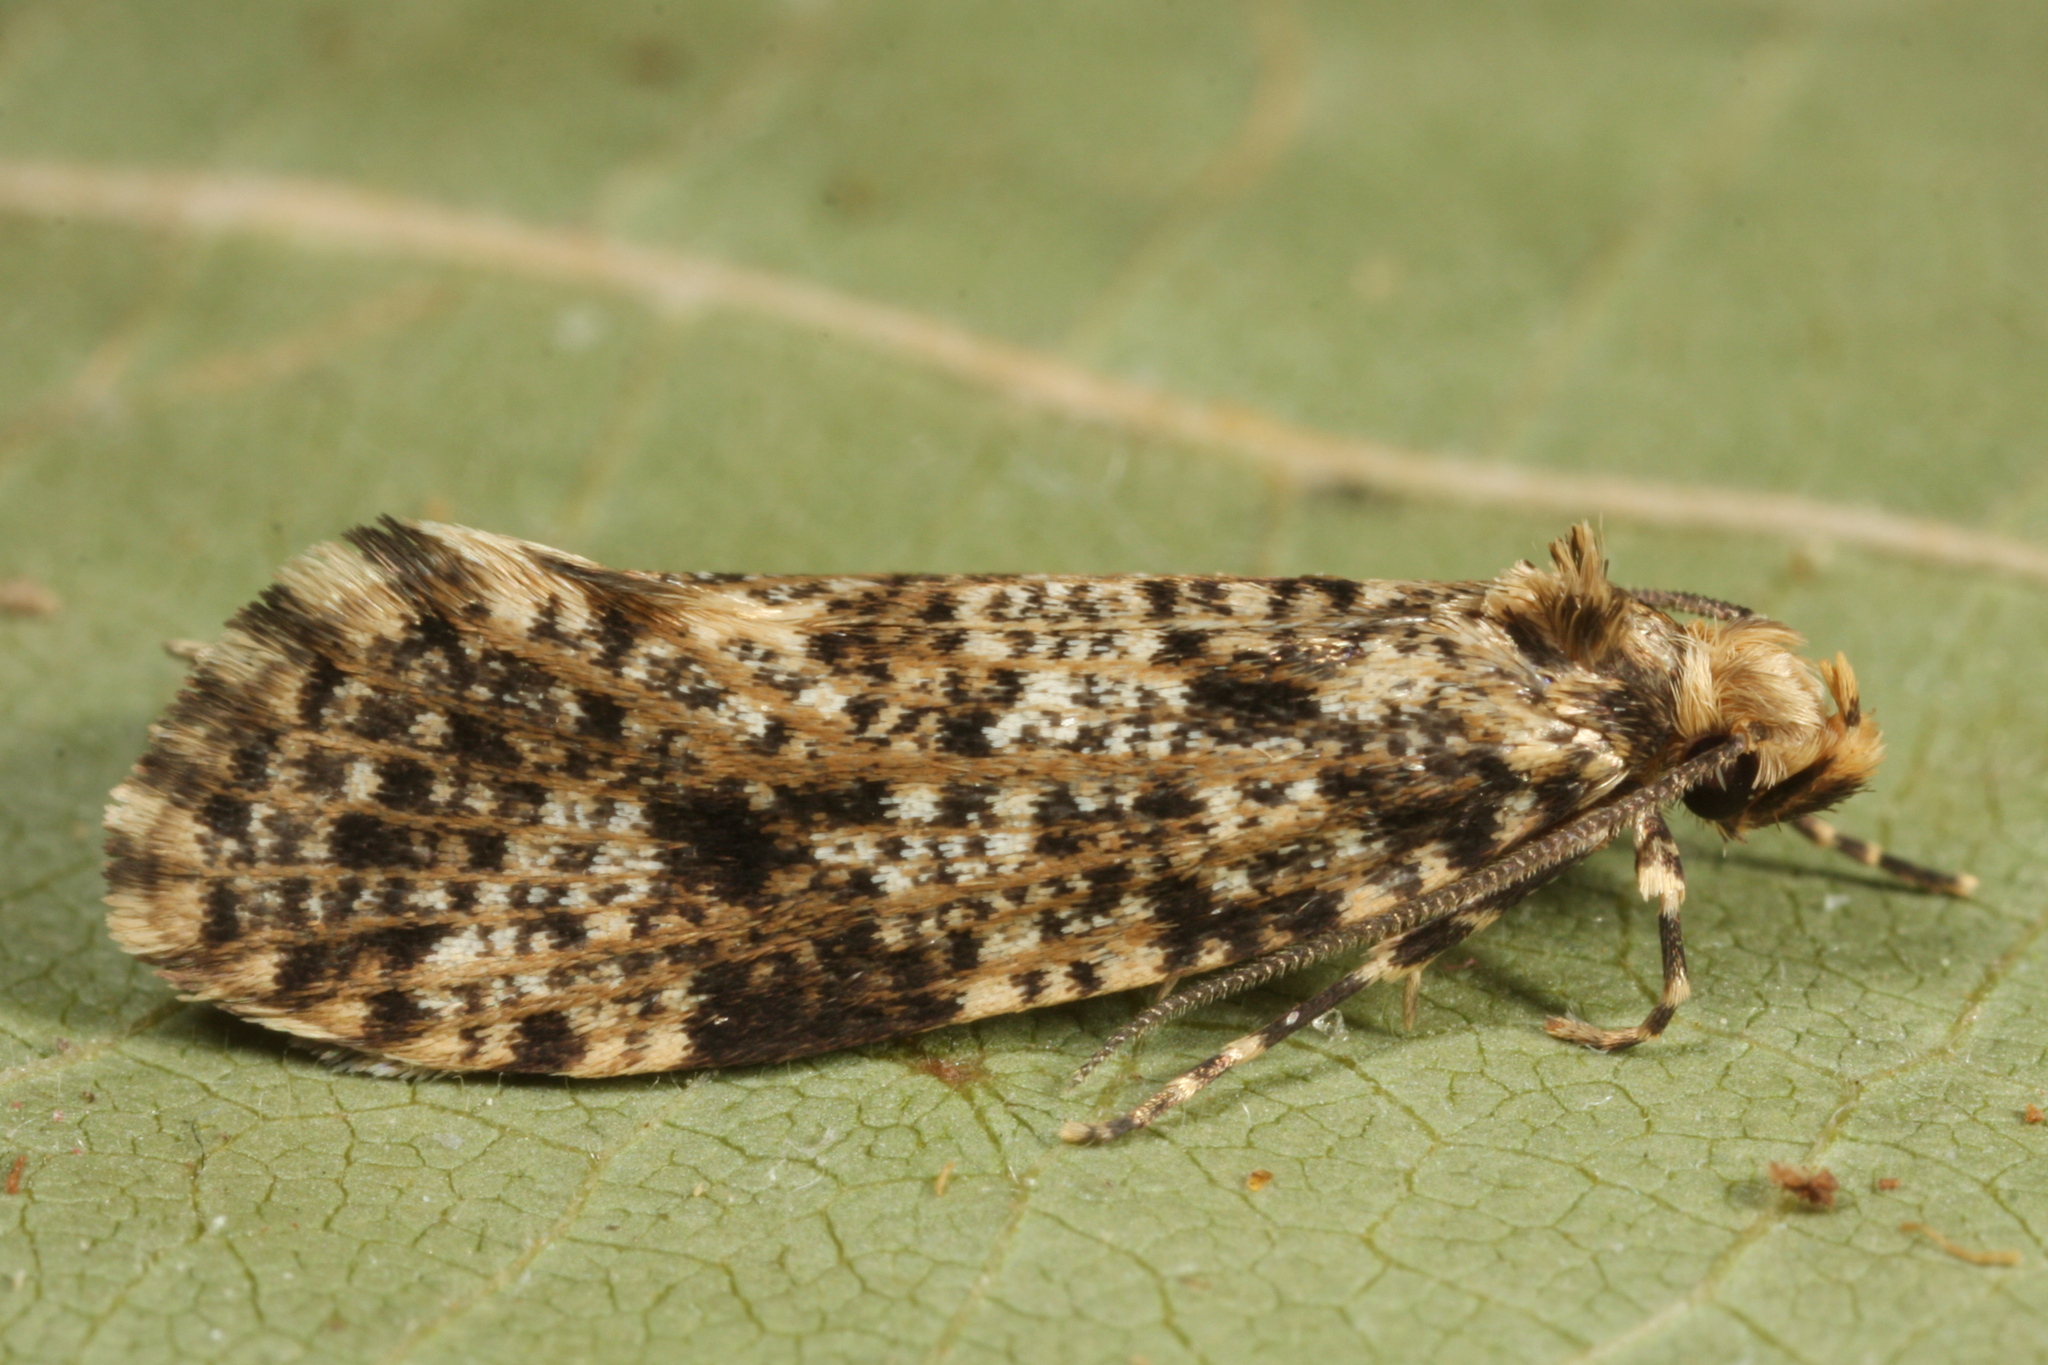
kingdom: Animalia
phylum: Arthropoda
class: Insecta
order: Lepidoptera
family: Tineidae
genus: Montescardia
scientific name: Montescardia tessulatellus
